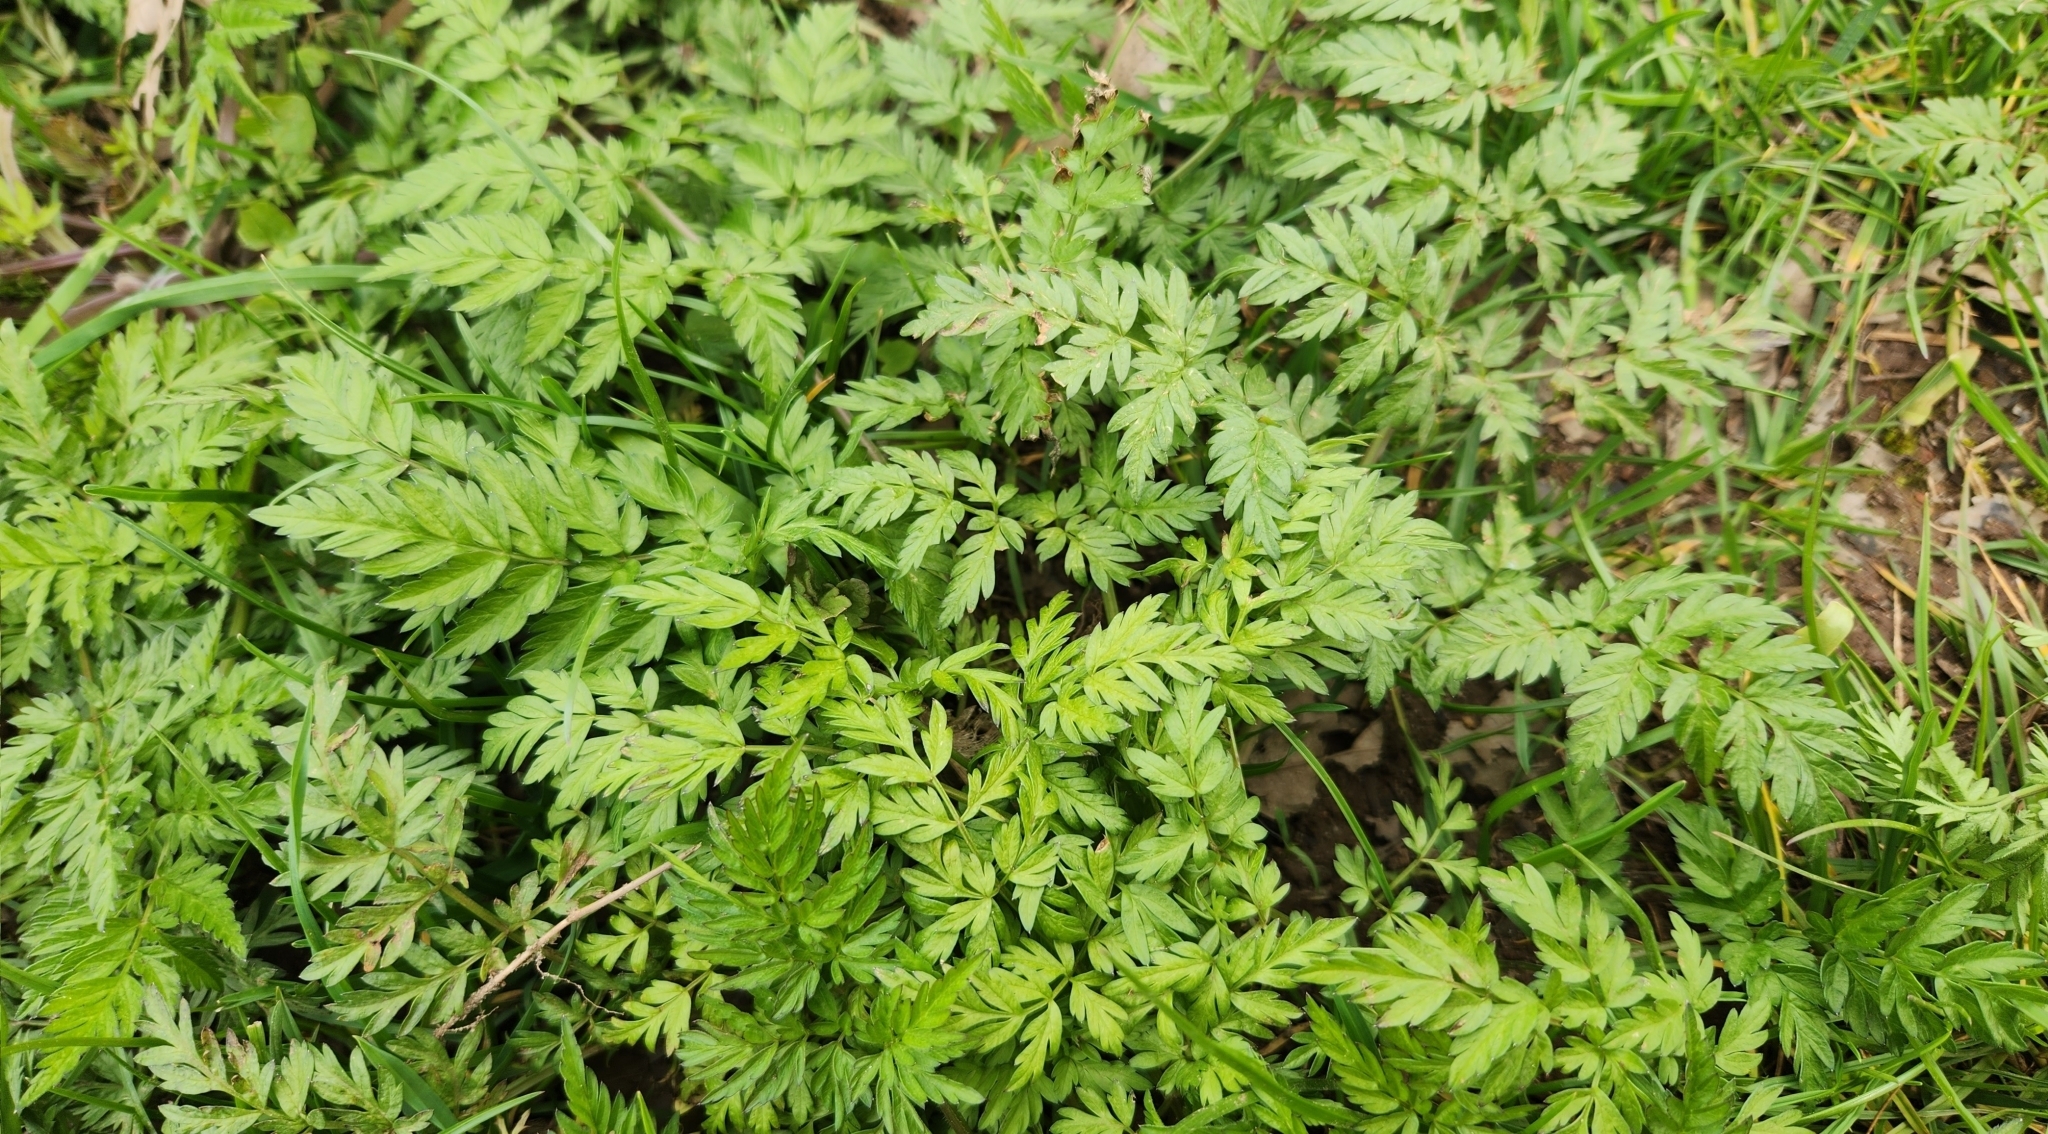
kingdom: Plantae
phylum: Tracheophyta
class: Magnoliopsida
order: Apiales
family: Apiaceae
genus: Anthriscus
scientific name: Anthriscus sylvestris
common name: Cow parsley
